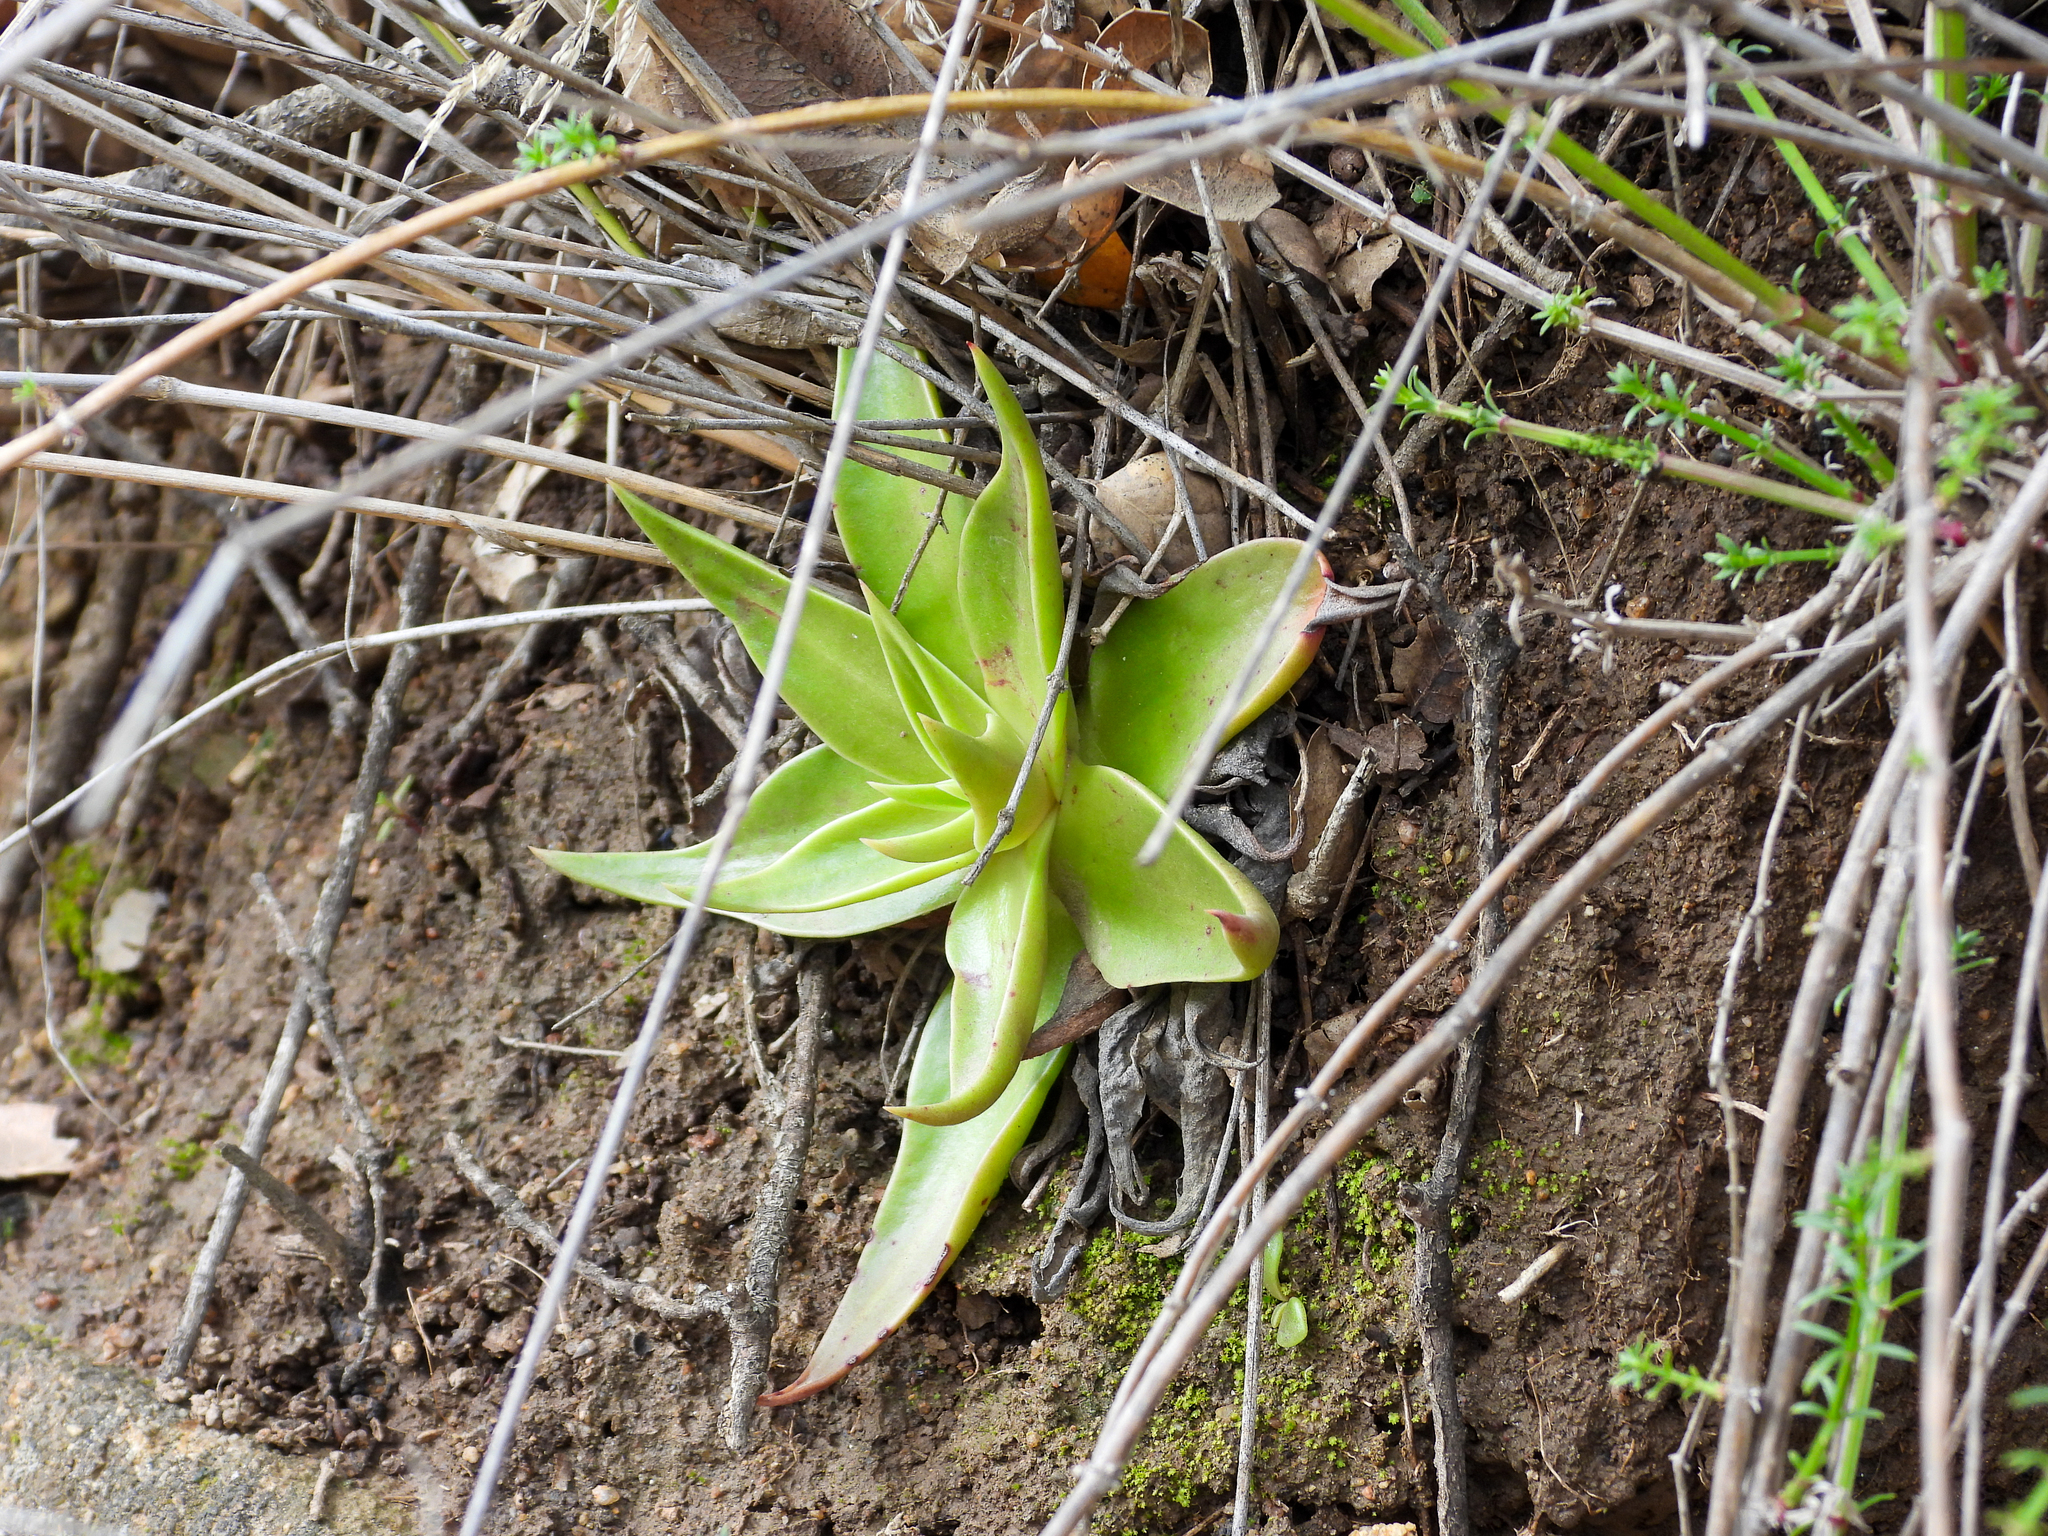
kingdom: Plantae
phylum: Tracheophyta
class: Magnoliopsida
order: Saxifragales
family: Crassulaceae
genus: Dudleya
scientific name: Dudleya lanceolata
